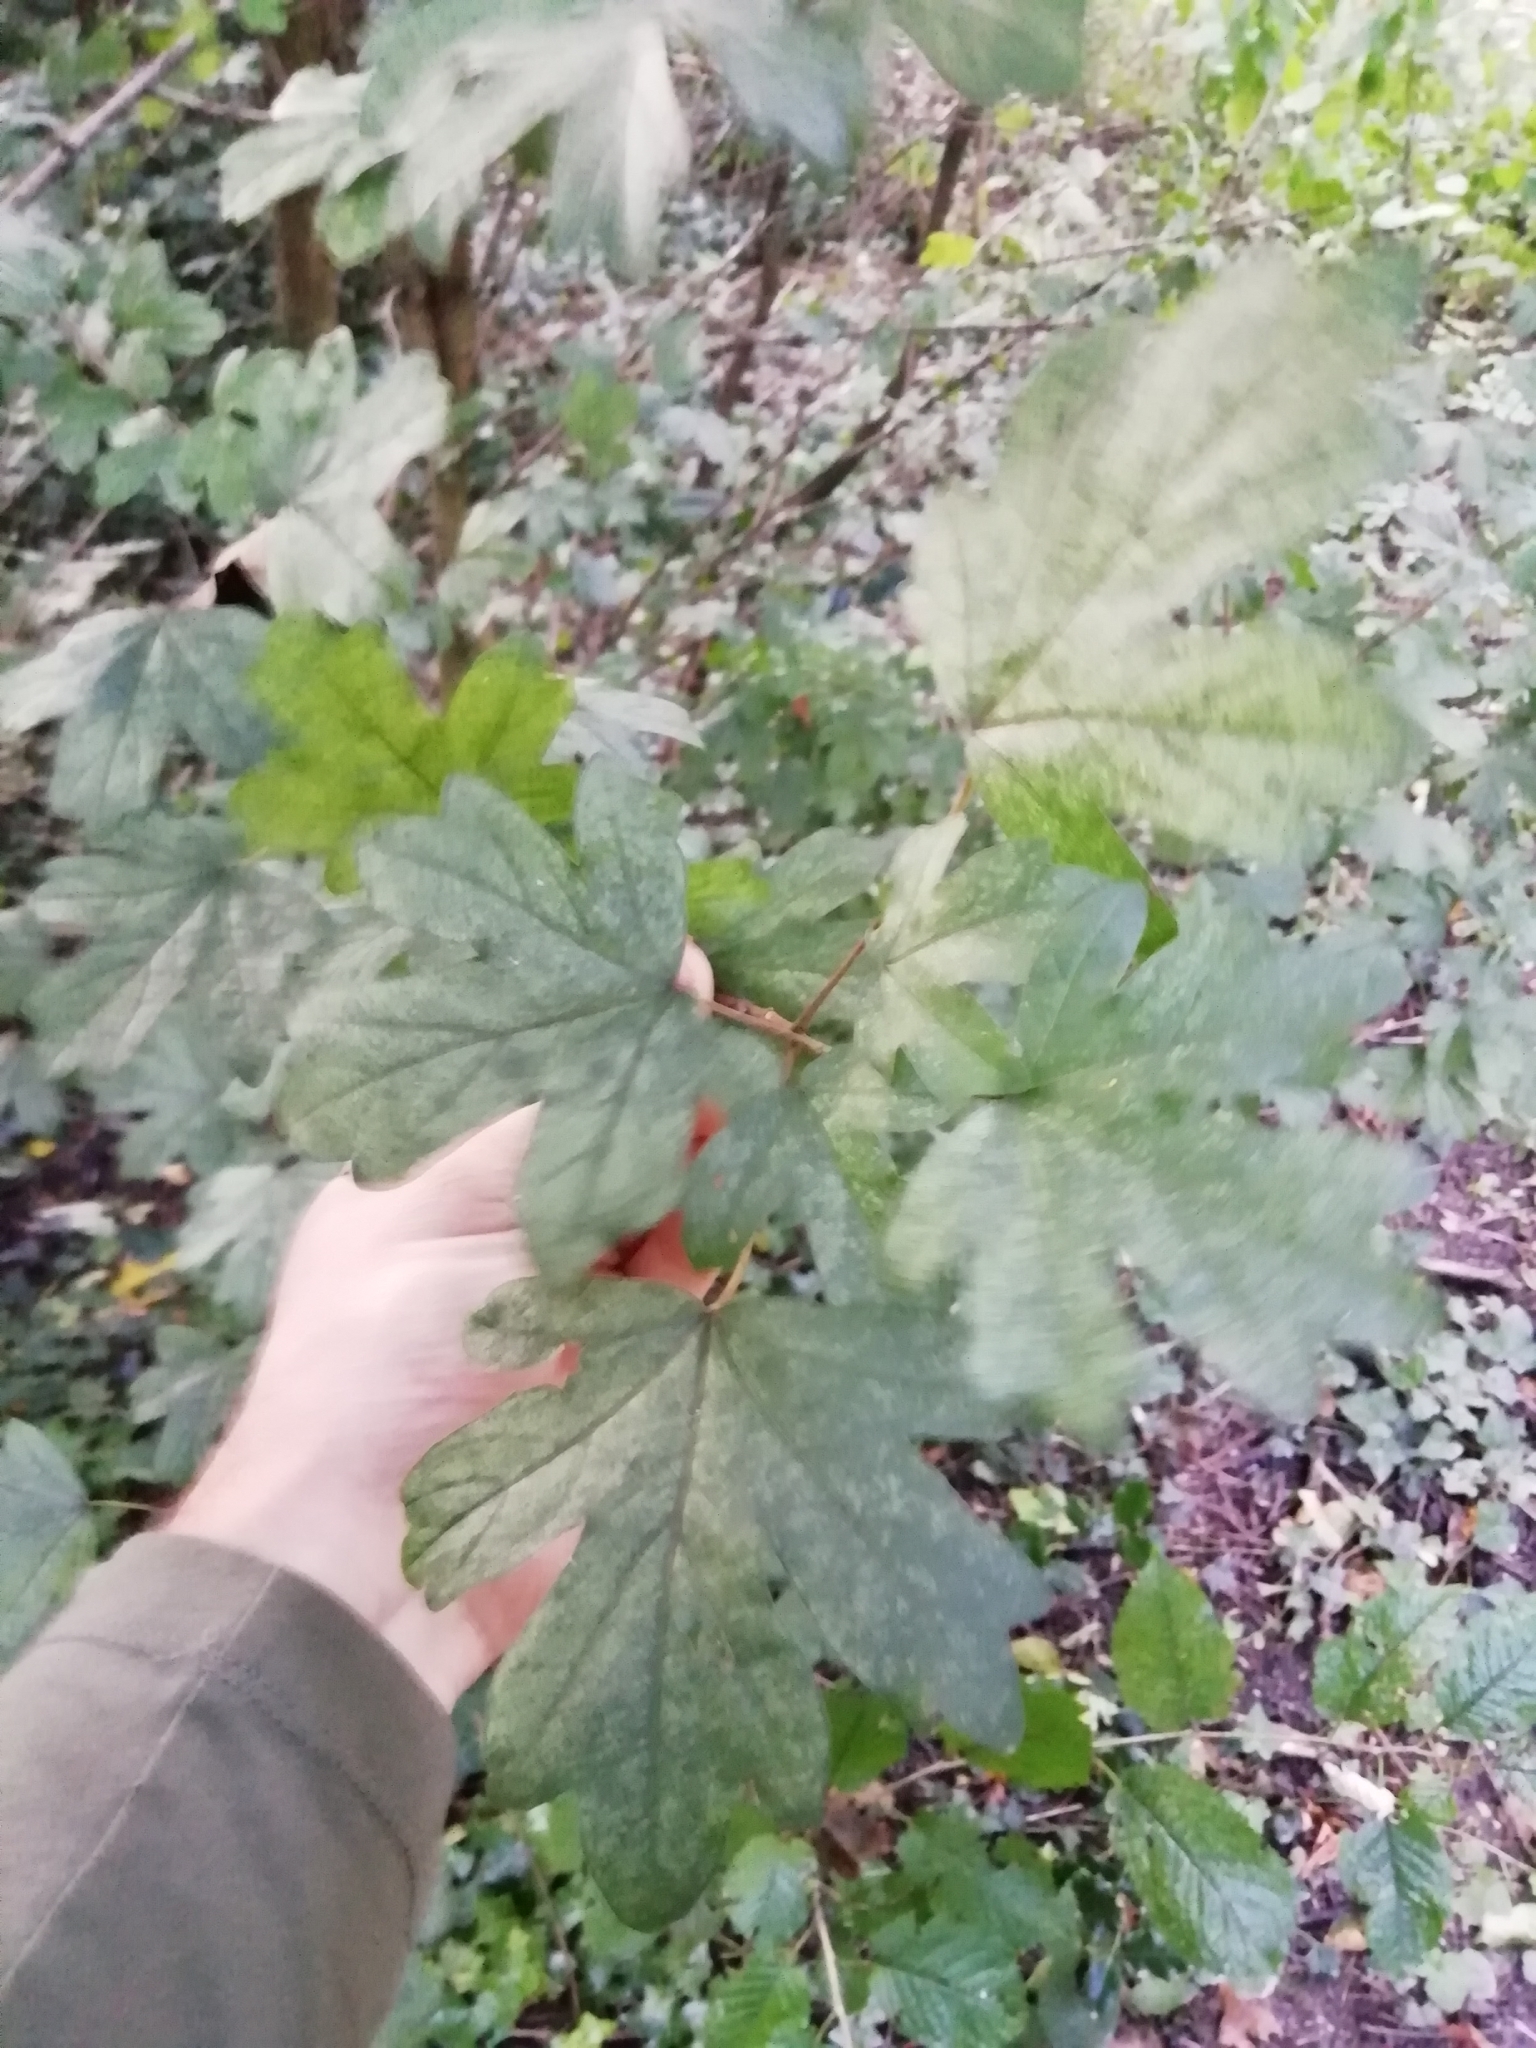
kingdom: Plantae
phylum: Tracheophyta
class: Magnoliopsida
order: Sapindales
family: Sapindaceae
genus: Acer
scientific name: Acer campestre
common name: Field maple
